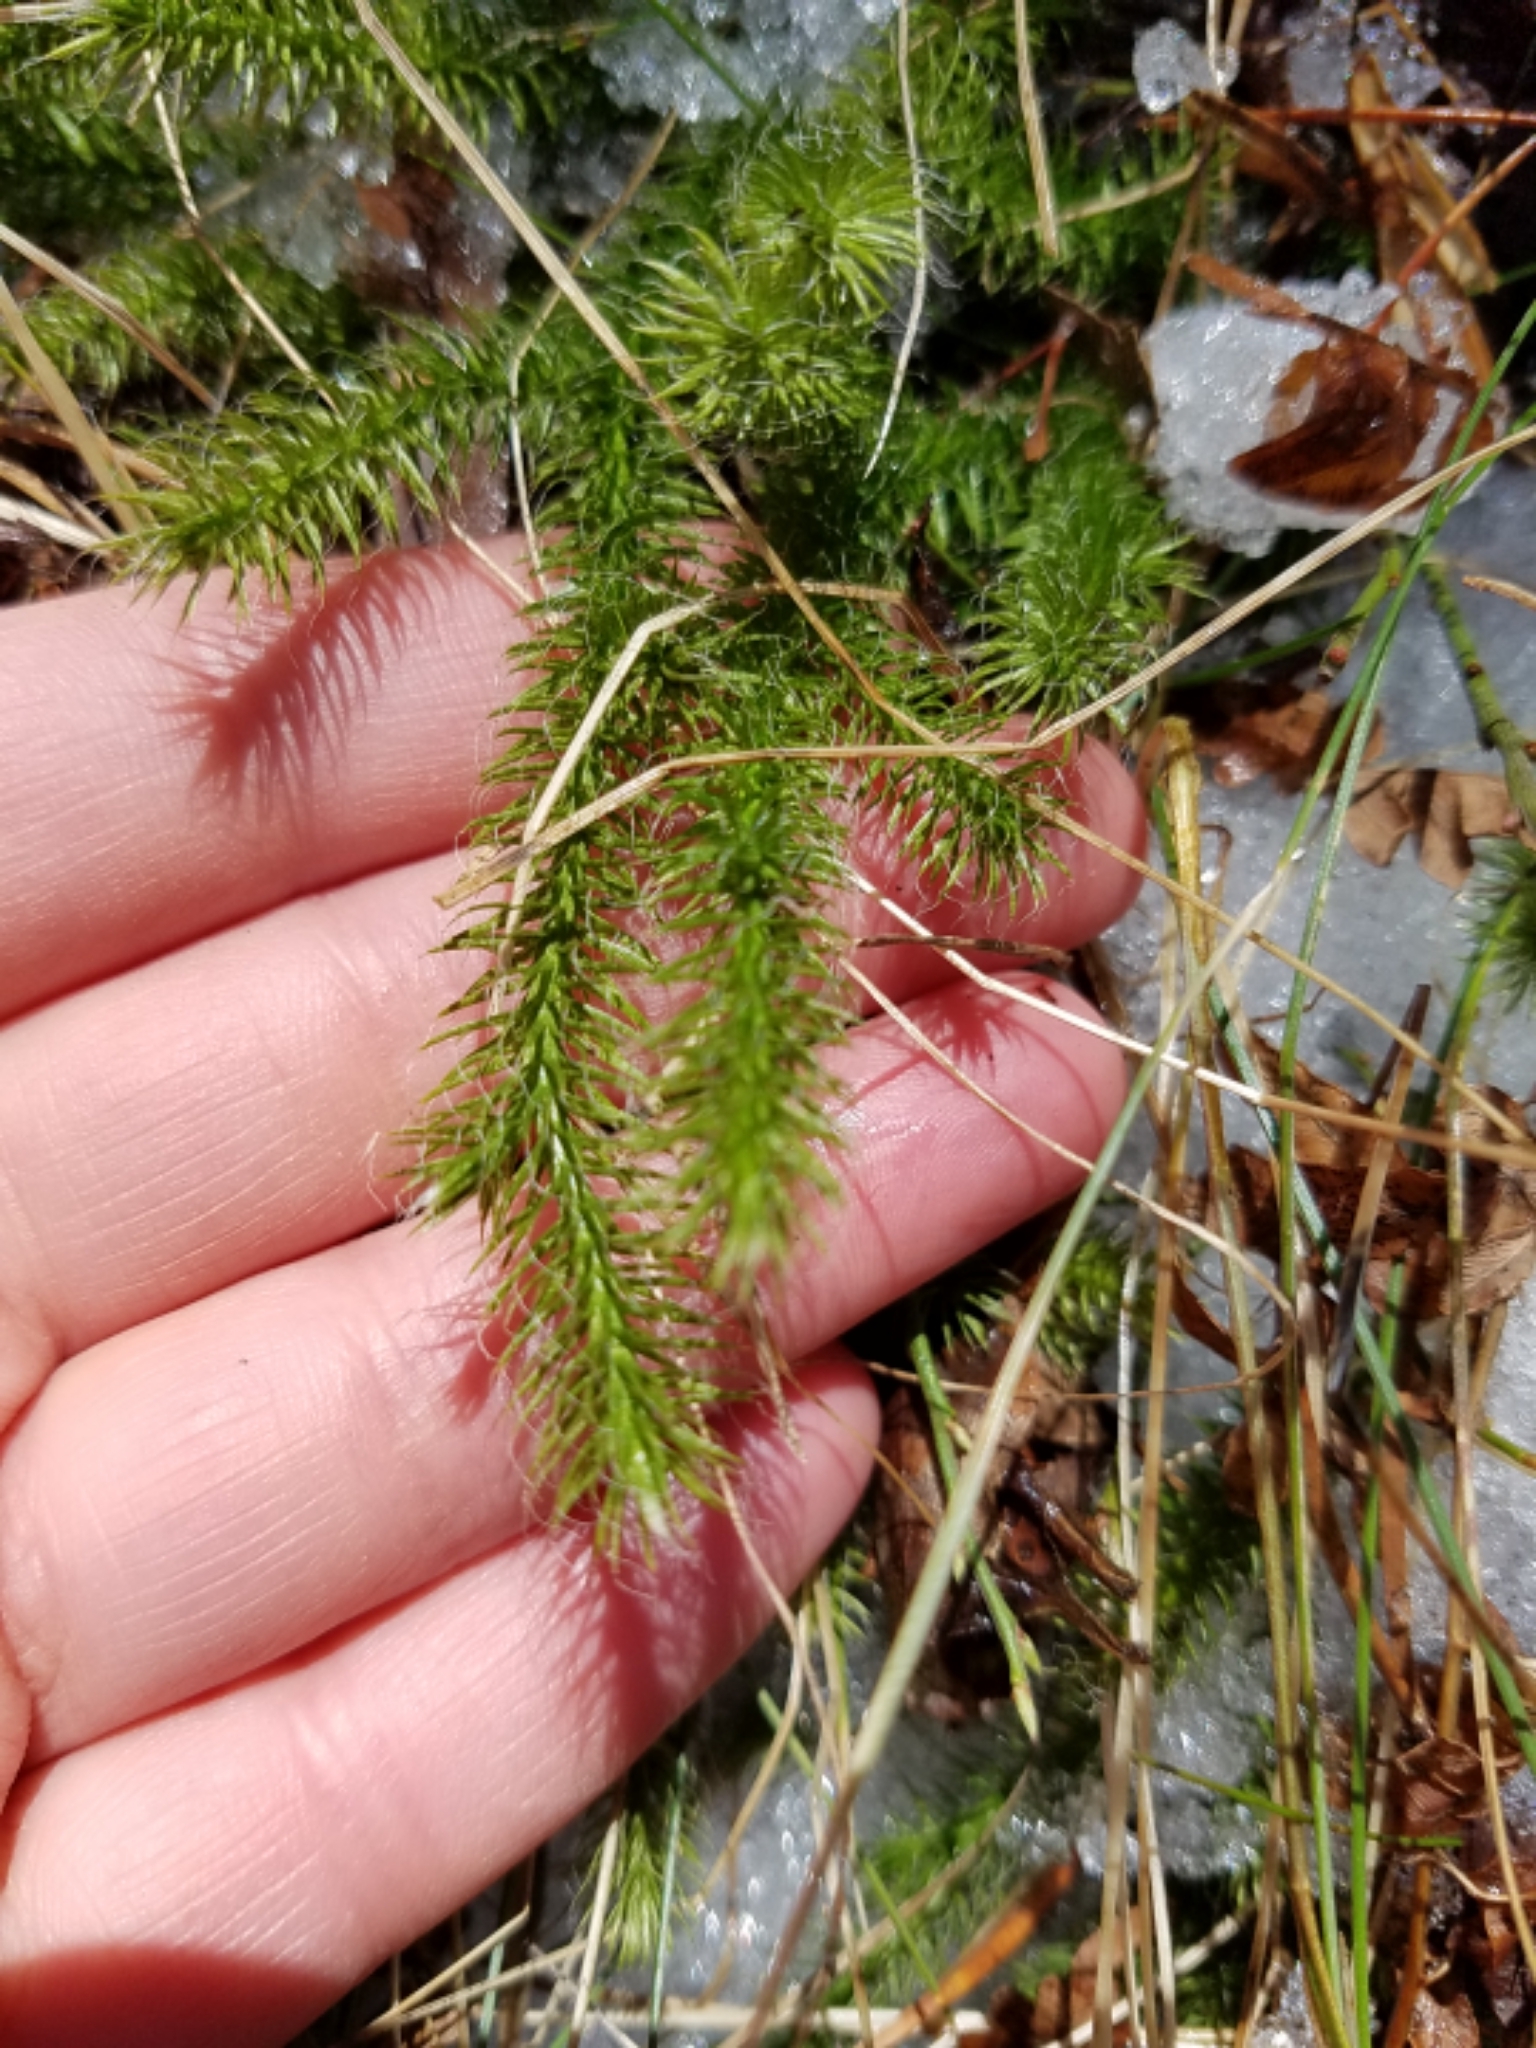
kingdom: Plantae
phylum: Tracheophyta
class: Lycopodiopsida
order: Lycopodiales
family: Lycopodiaceae
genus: Lycopodium
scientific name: Lycopodium clavatum
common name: Stag's-horn clubmoss
